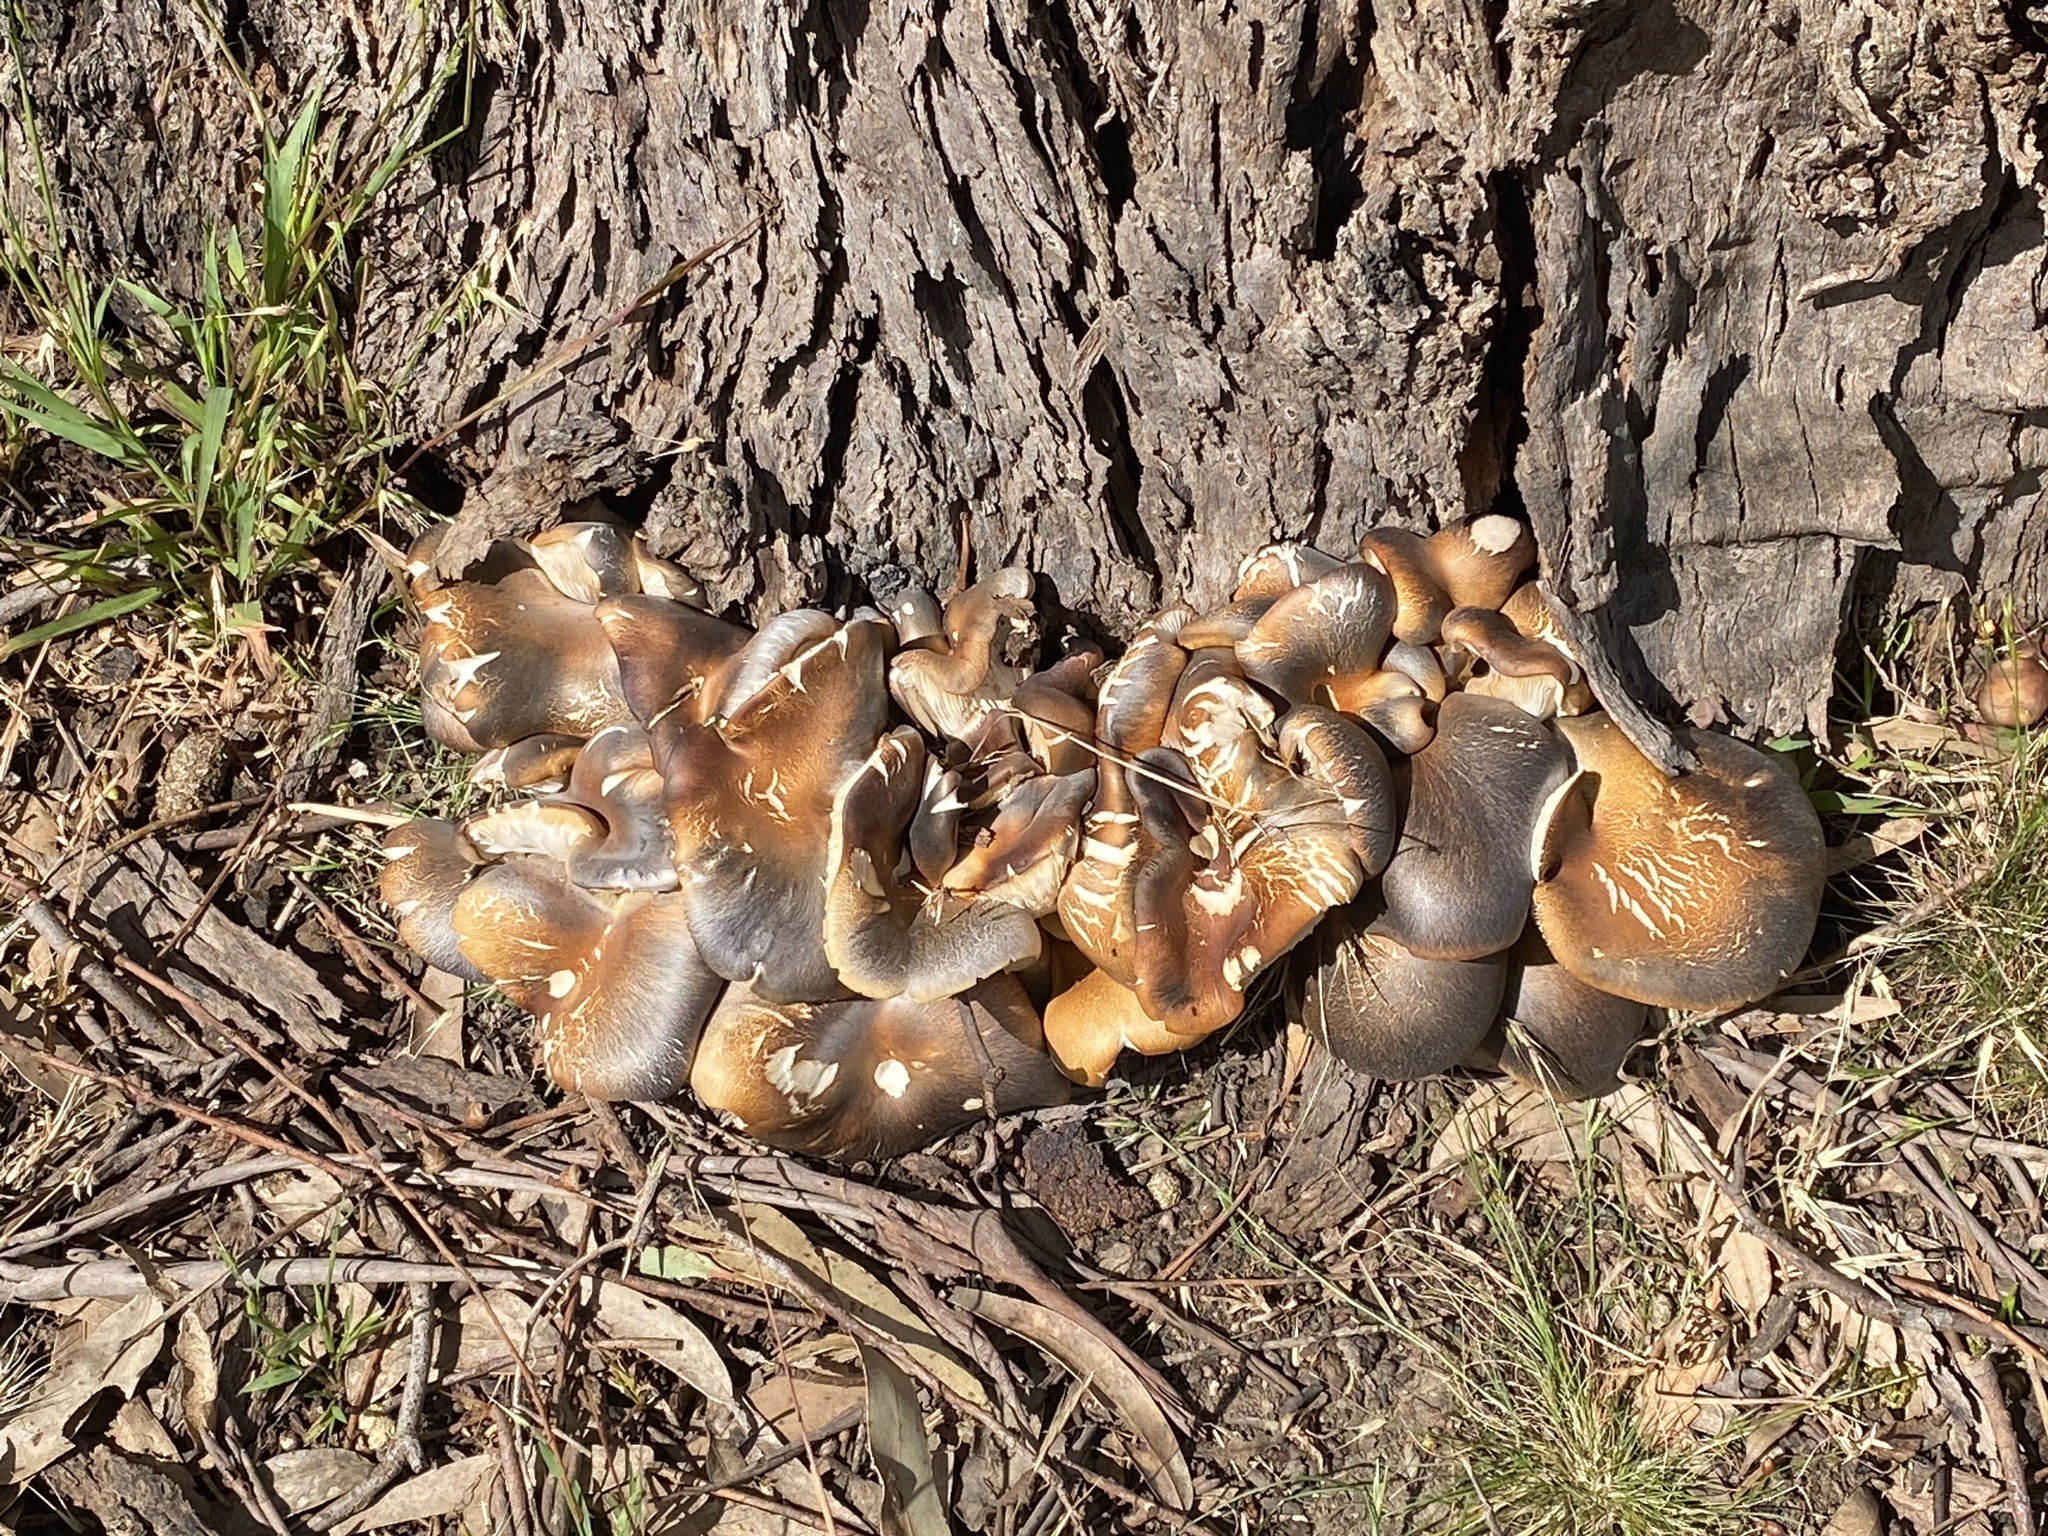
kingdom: Fungi
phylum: Basidiomycota
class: Agaricomycetes
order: Agaricales
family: Omphalotaceae
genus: Omphalotus
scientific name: Omphalotus nidiformis
